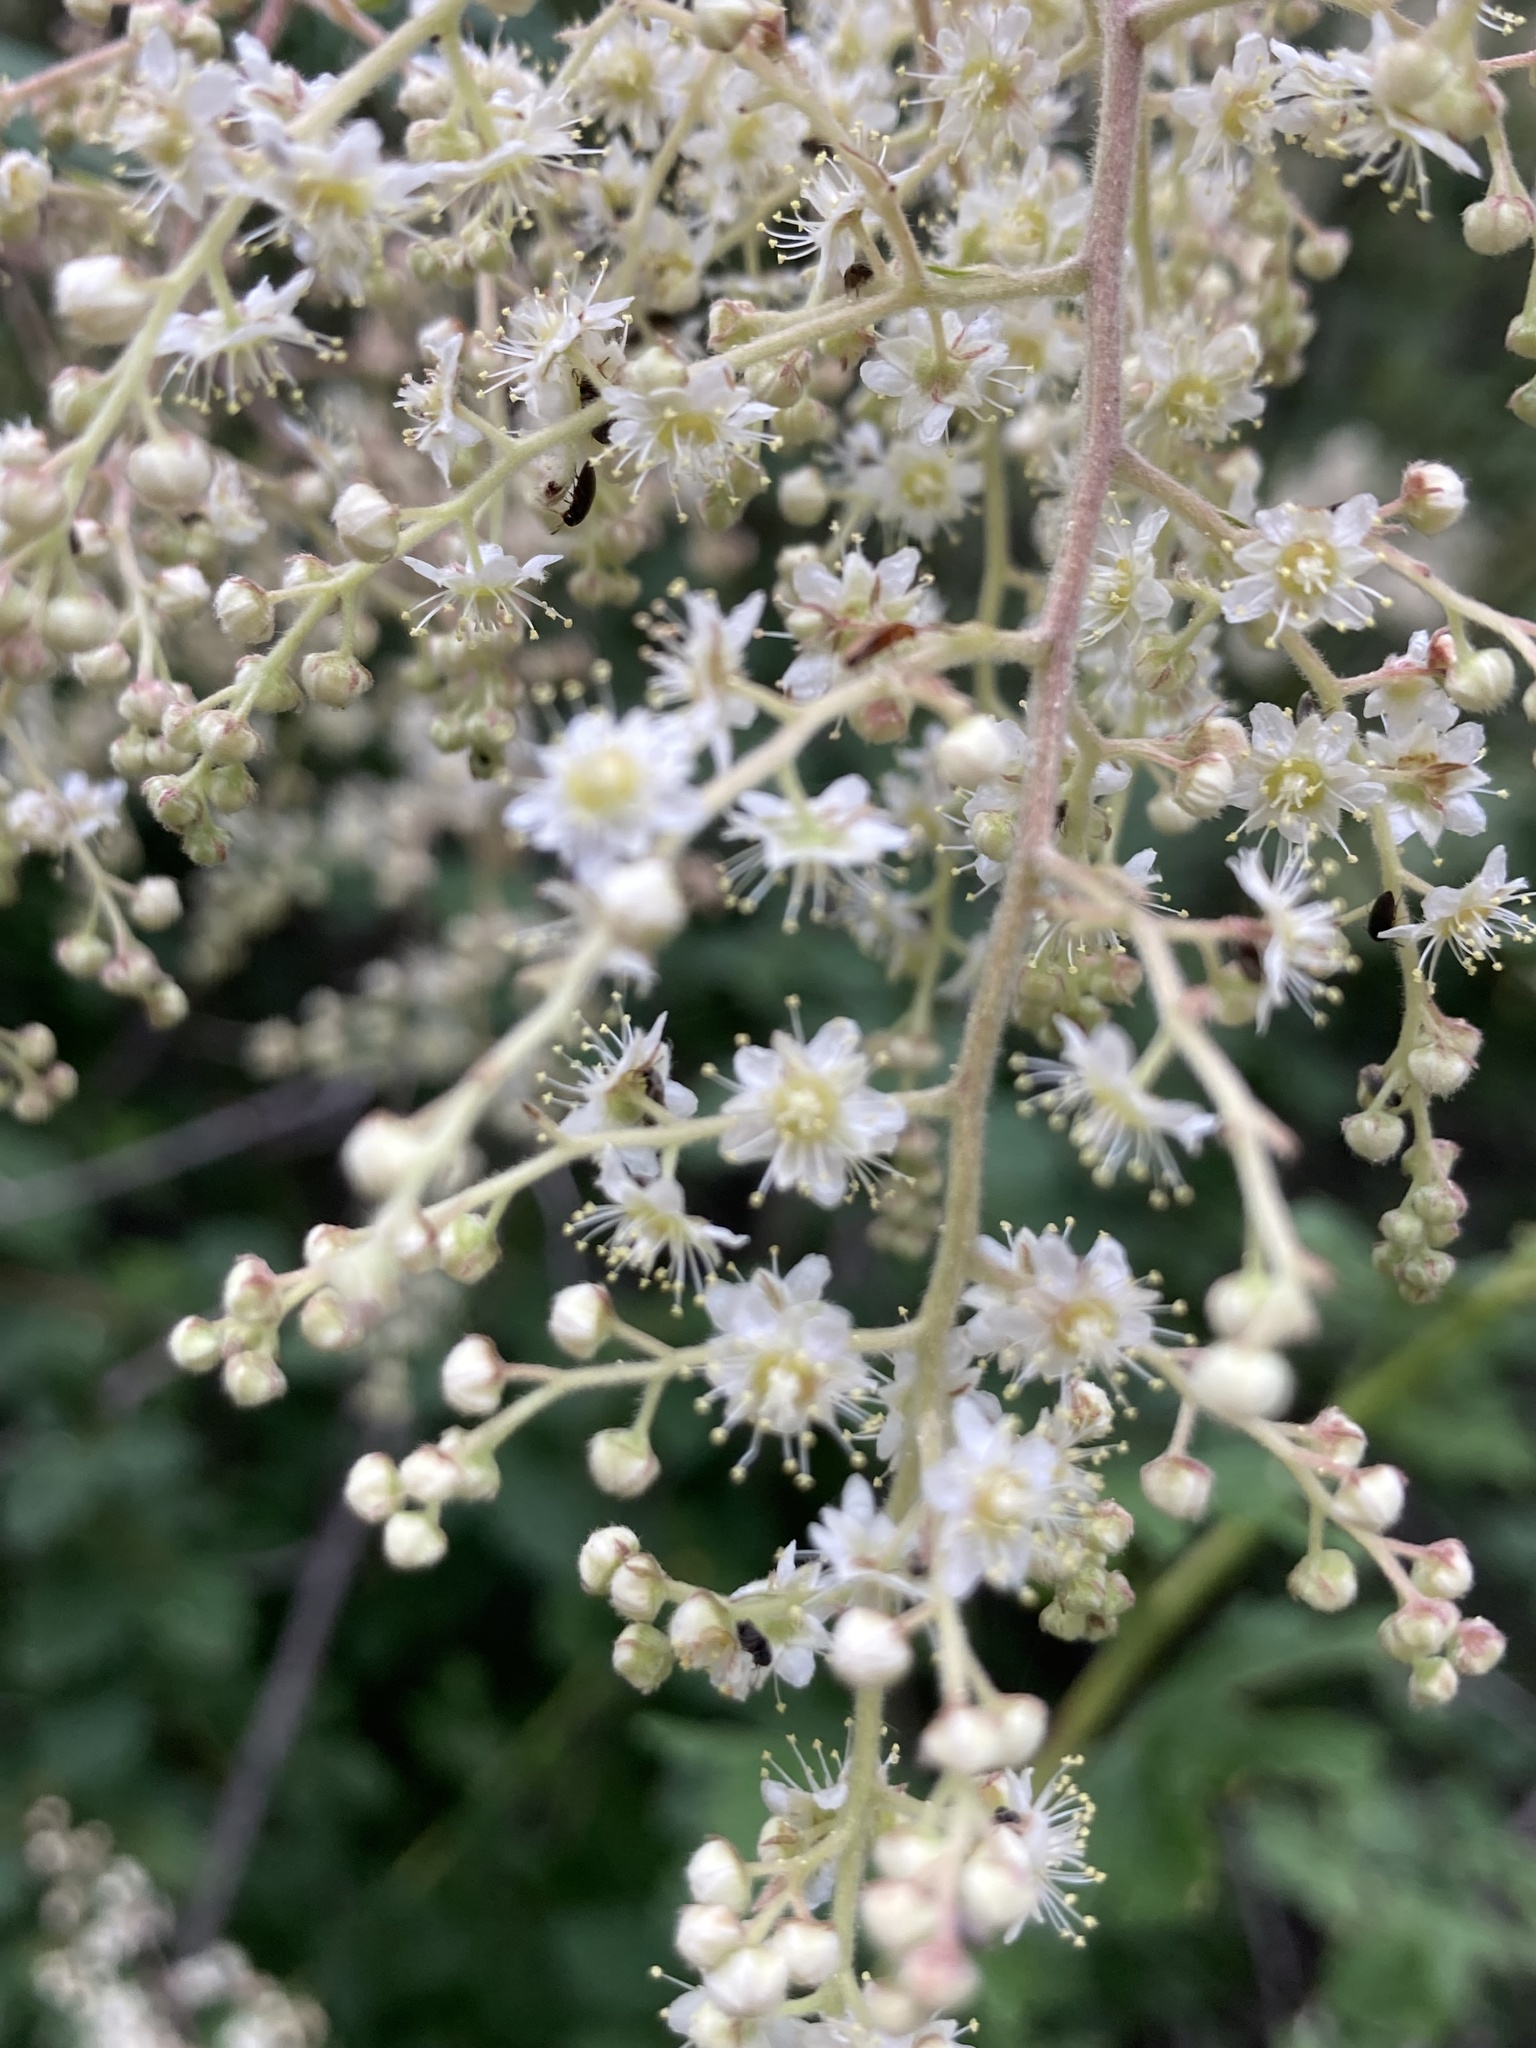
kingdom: Plantae
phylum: Tracheophyta
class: Magnoliopsida
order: Rosales
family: Rosaceae
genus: Holodiscus
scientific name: Holodiscus discolor
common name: Oceanspray
